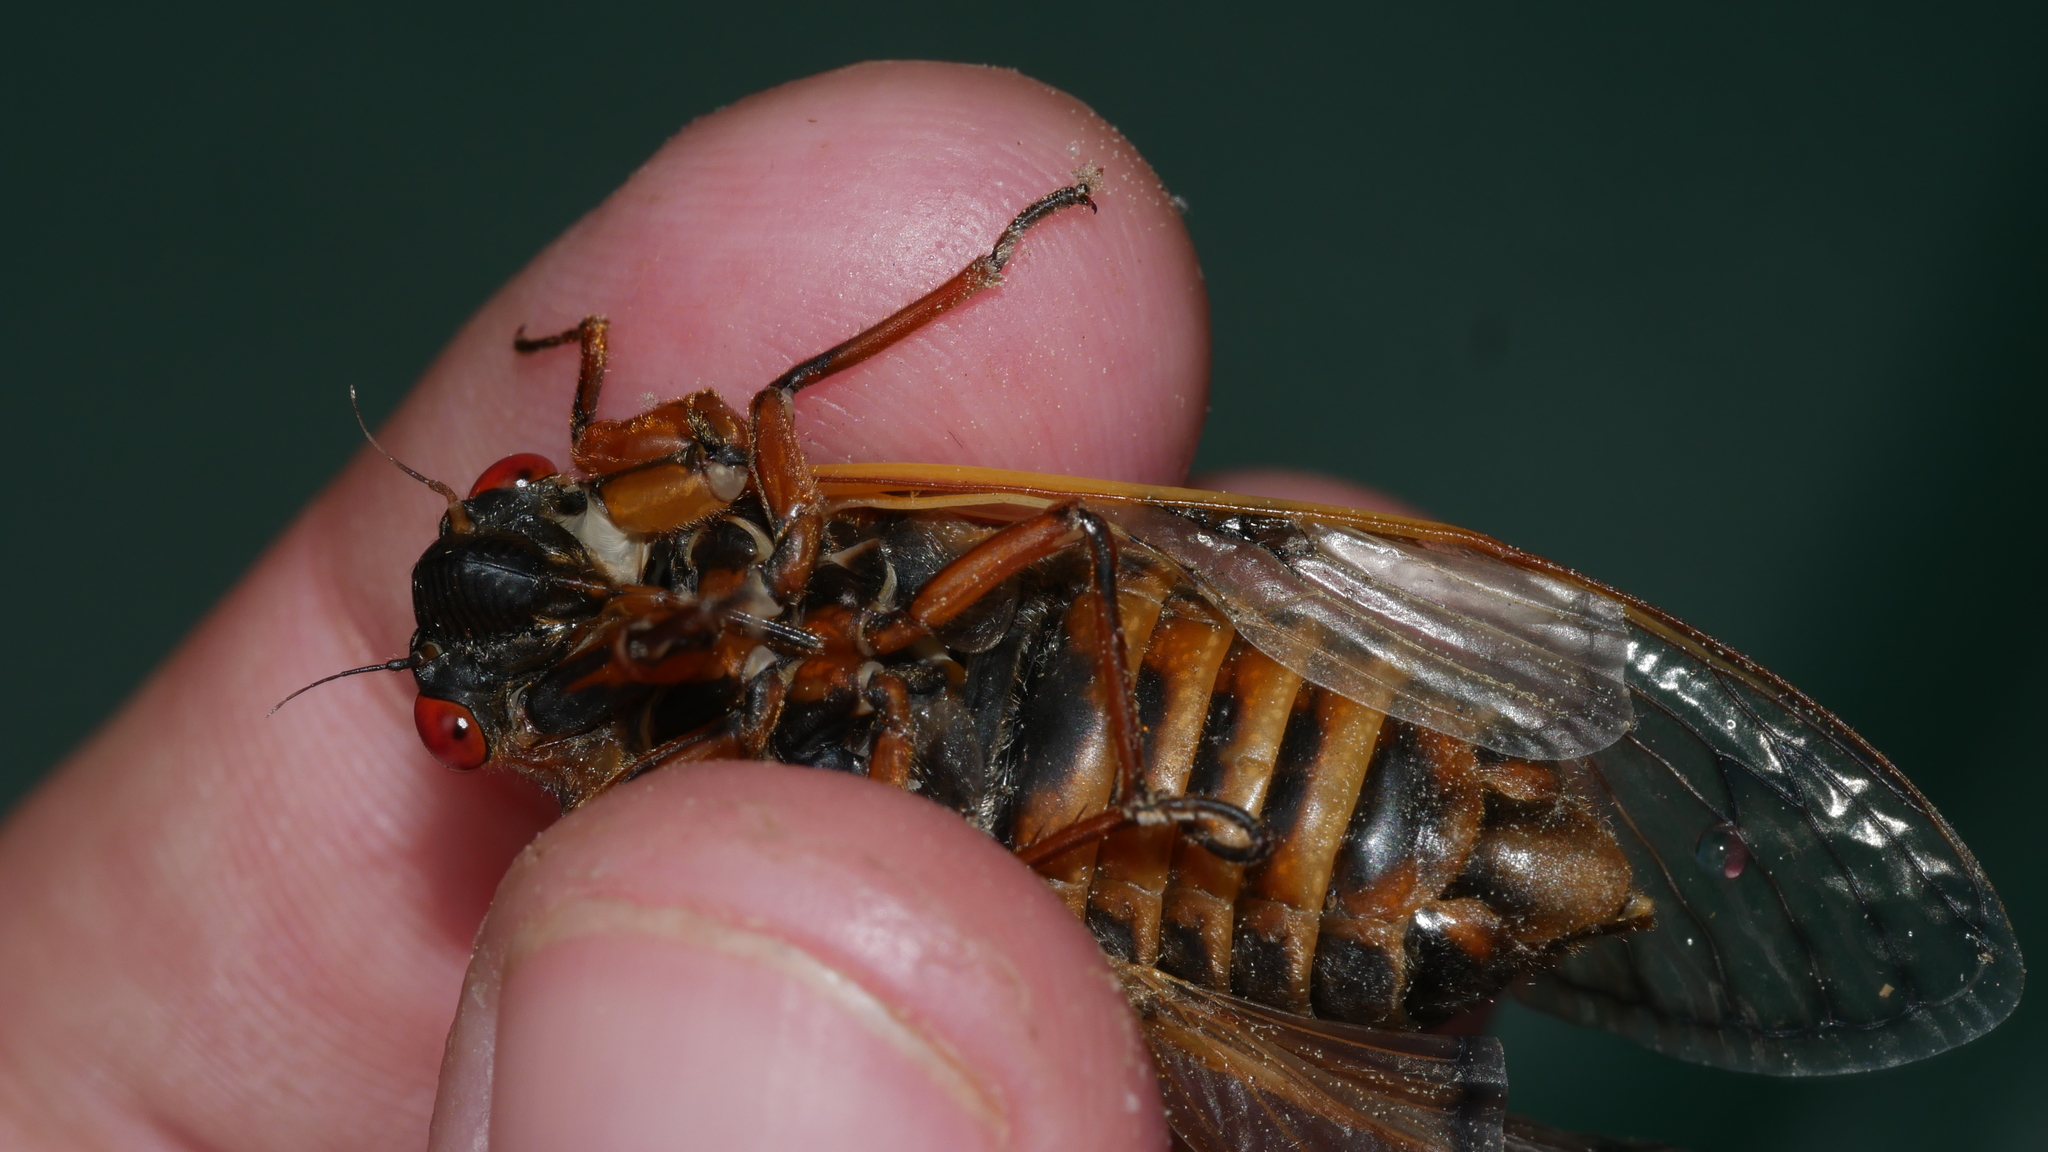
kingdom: Animalia
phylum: Arthropoda
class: Insecta
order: Hemiptera
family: Cicadidae
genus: Magicicada
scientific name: Magicicada septendecim
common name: Periodical cicada
